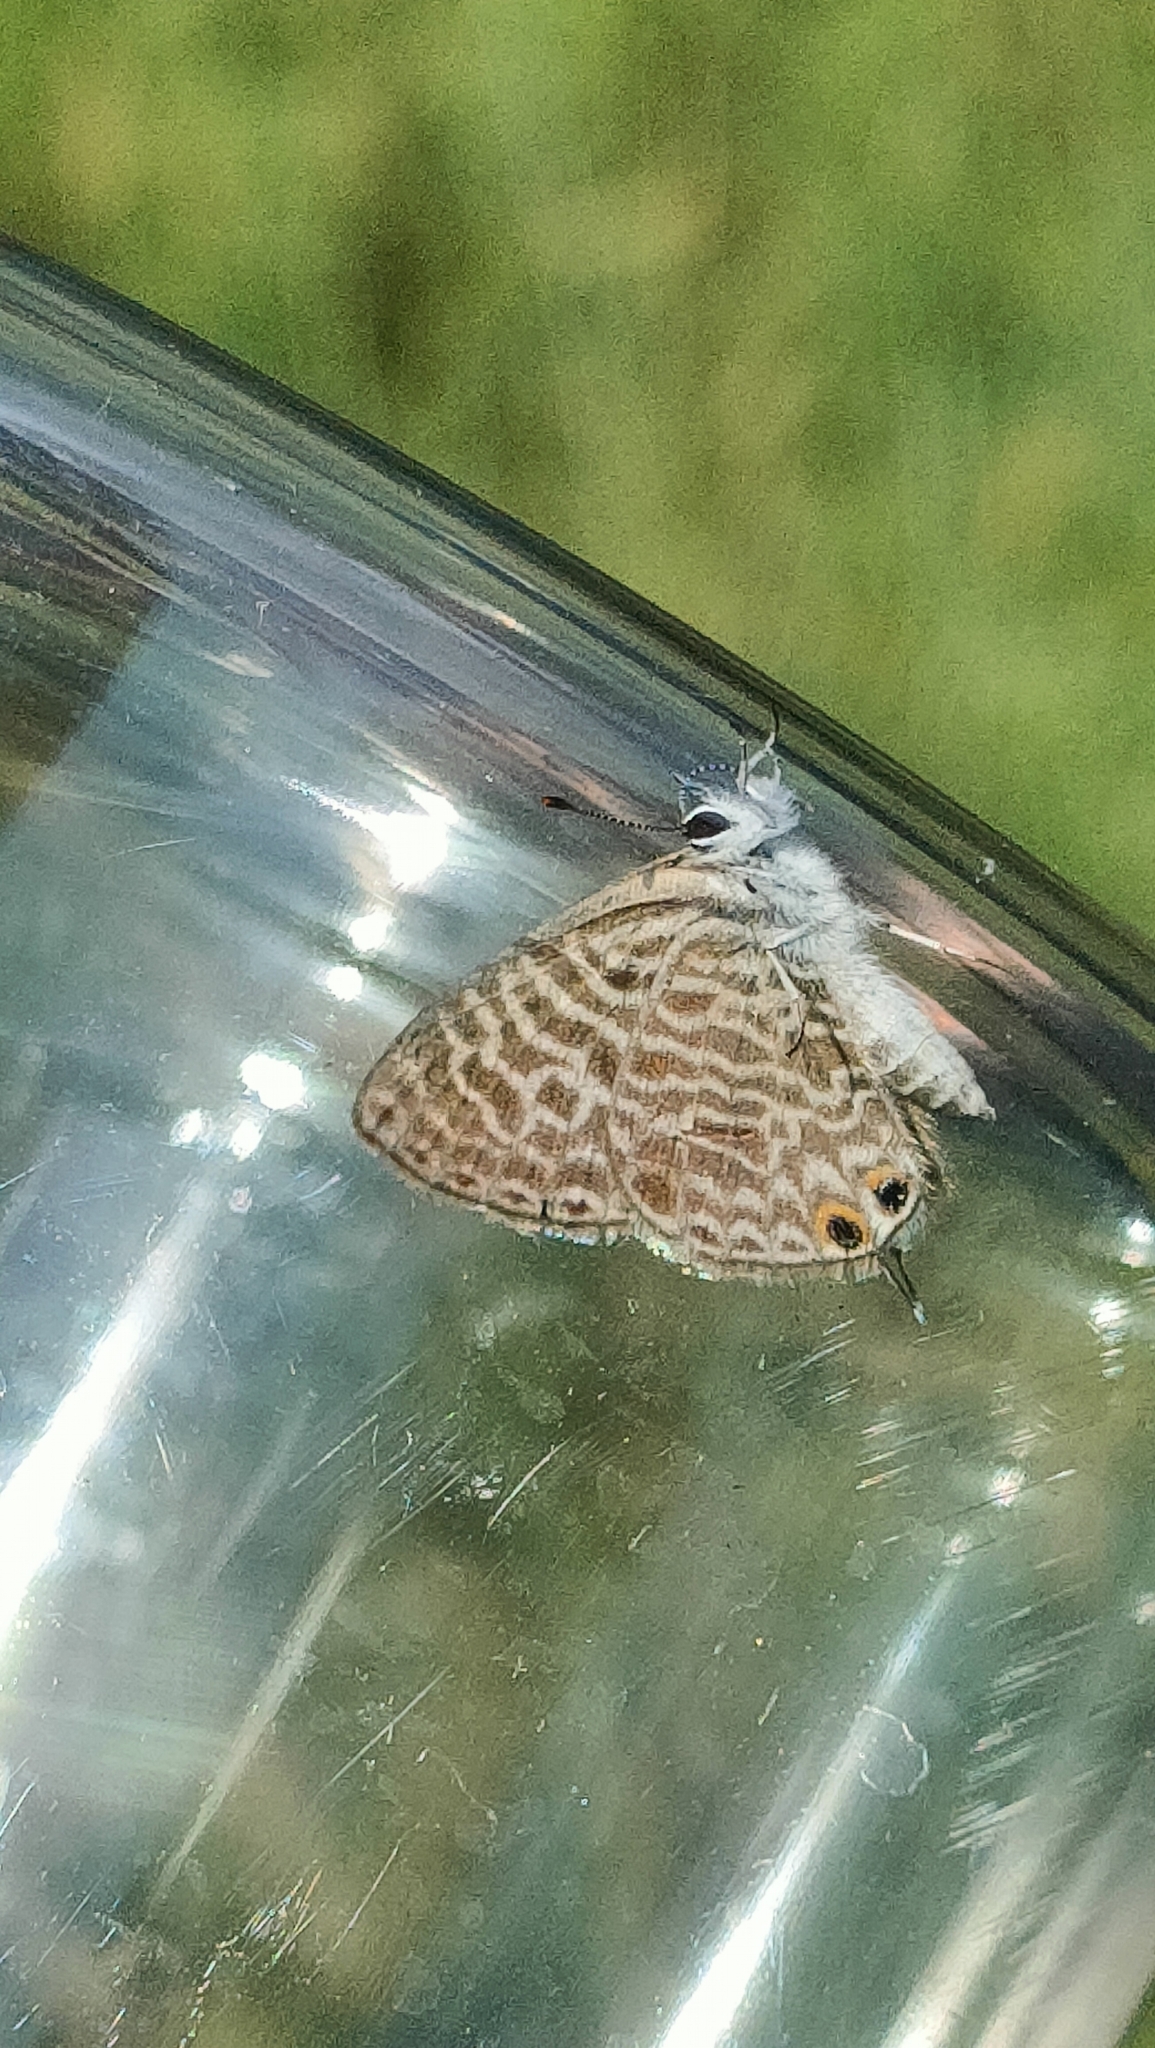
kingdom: Animalia
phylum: Arthropoda
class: Insecta
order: Lepidoptera
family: Lycaenidae
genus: Leptotes
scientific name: Leptotes pirithous
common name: Lang's short-tailed blue
